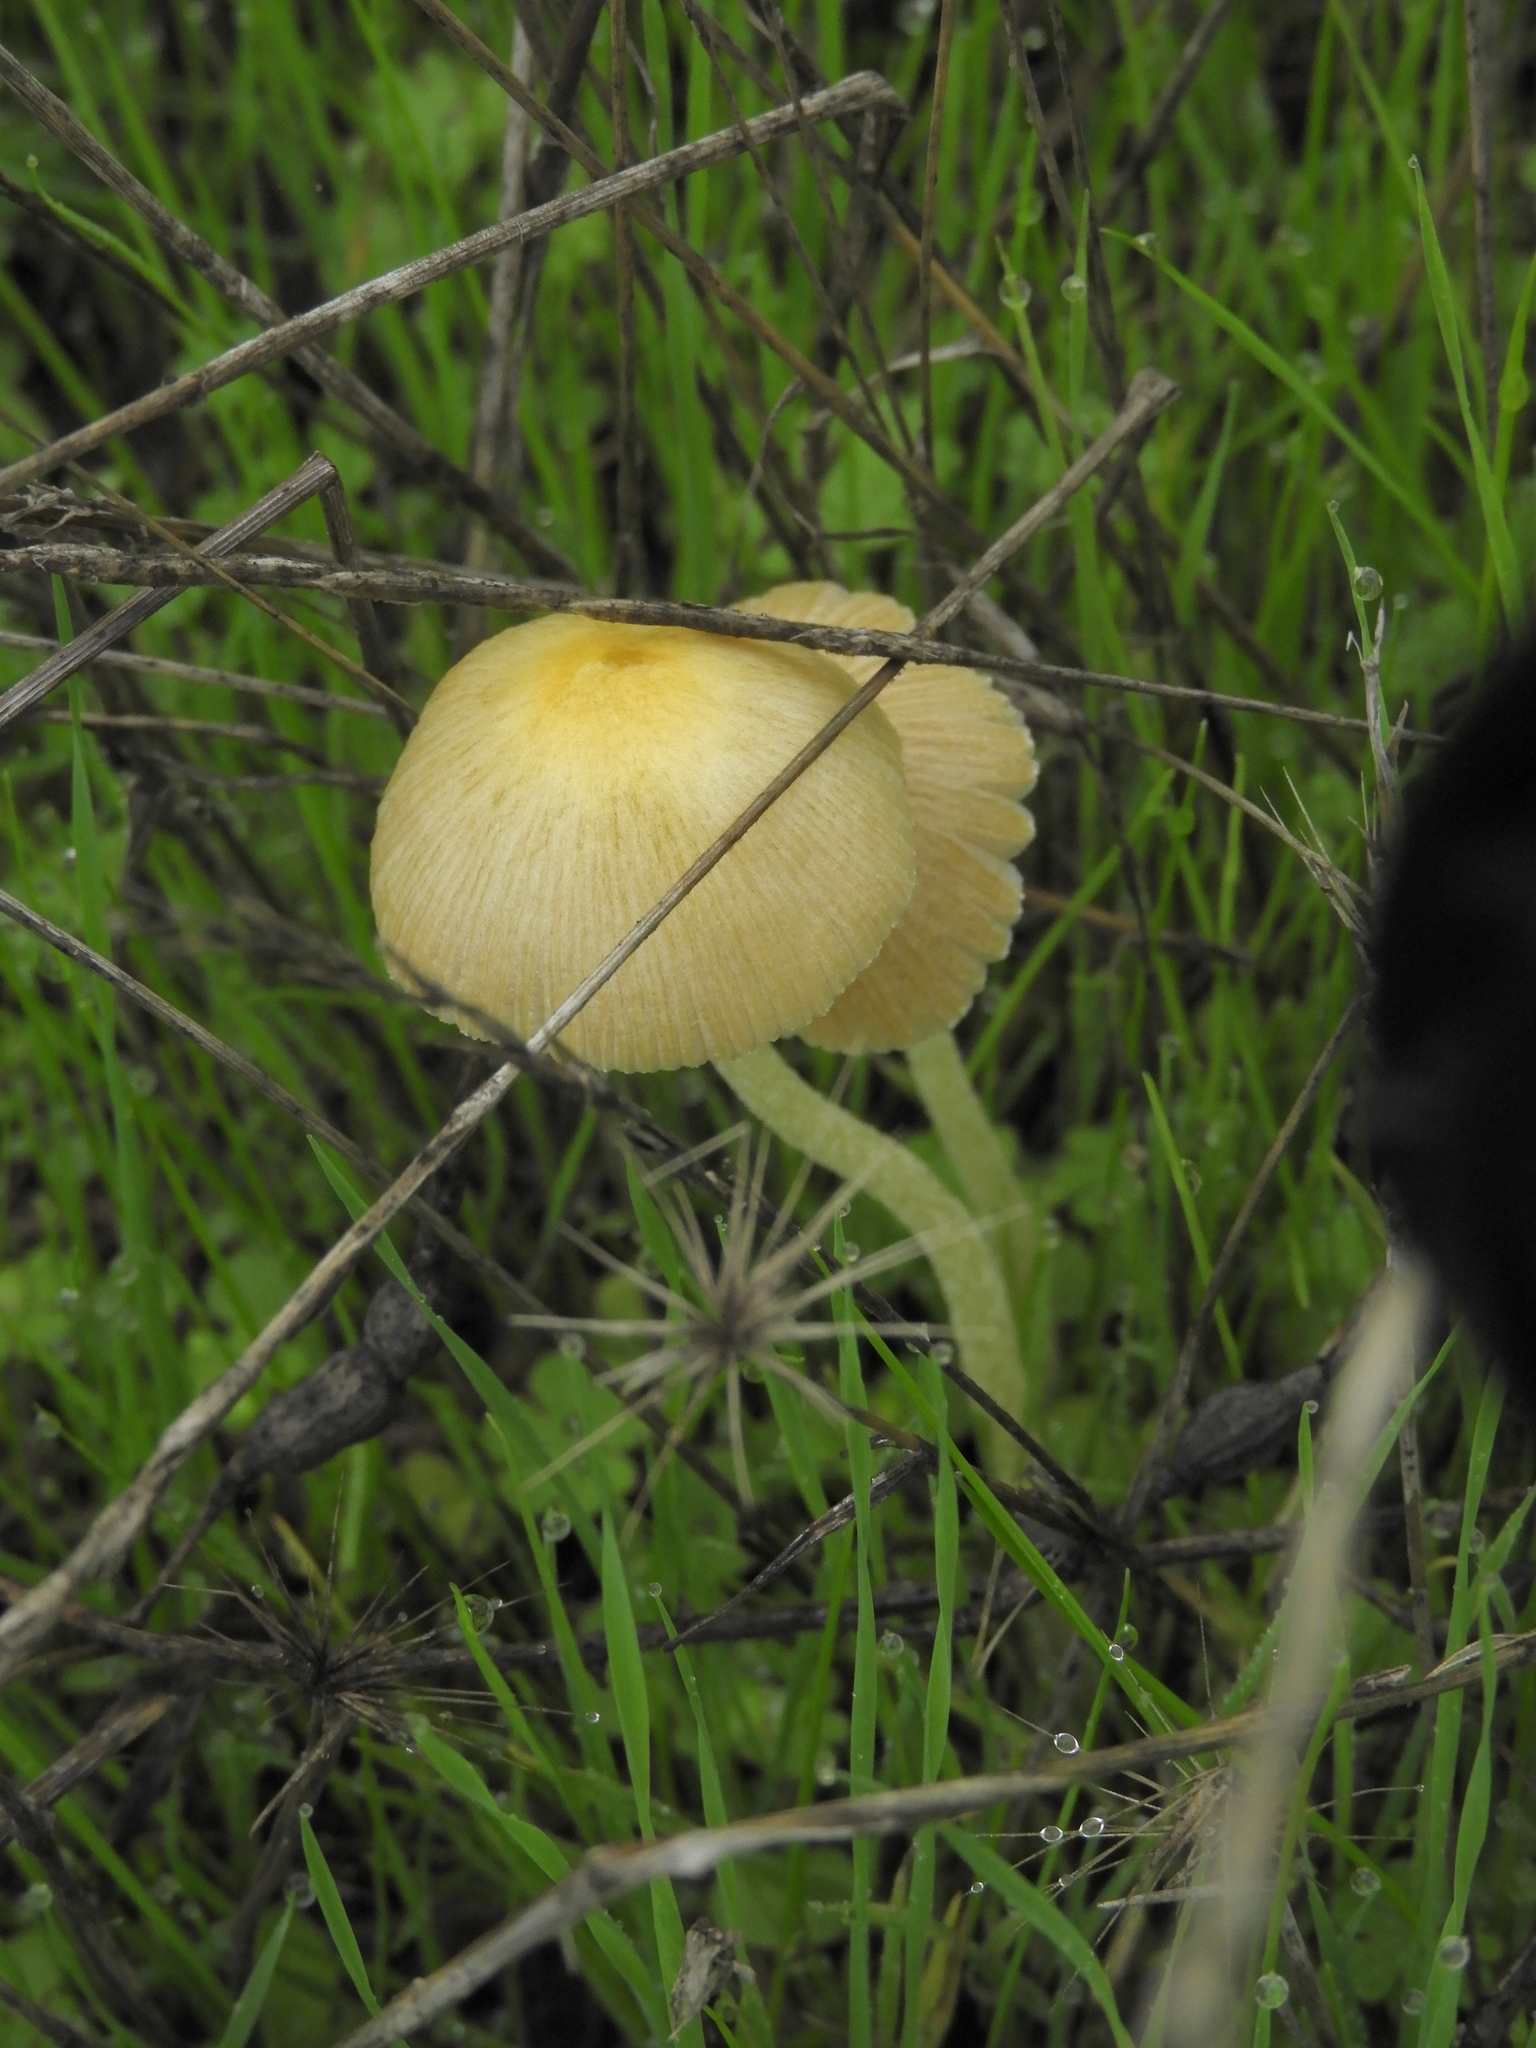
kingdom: Fungi
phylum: Basidiomycota
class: Agaricomycetes
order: Agaricales
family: Bolbitiaceae
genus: Bolbitius
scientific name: Bolbitius titubans
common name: Yellow fieldcap
